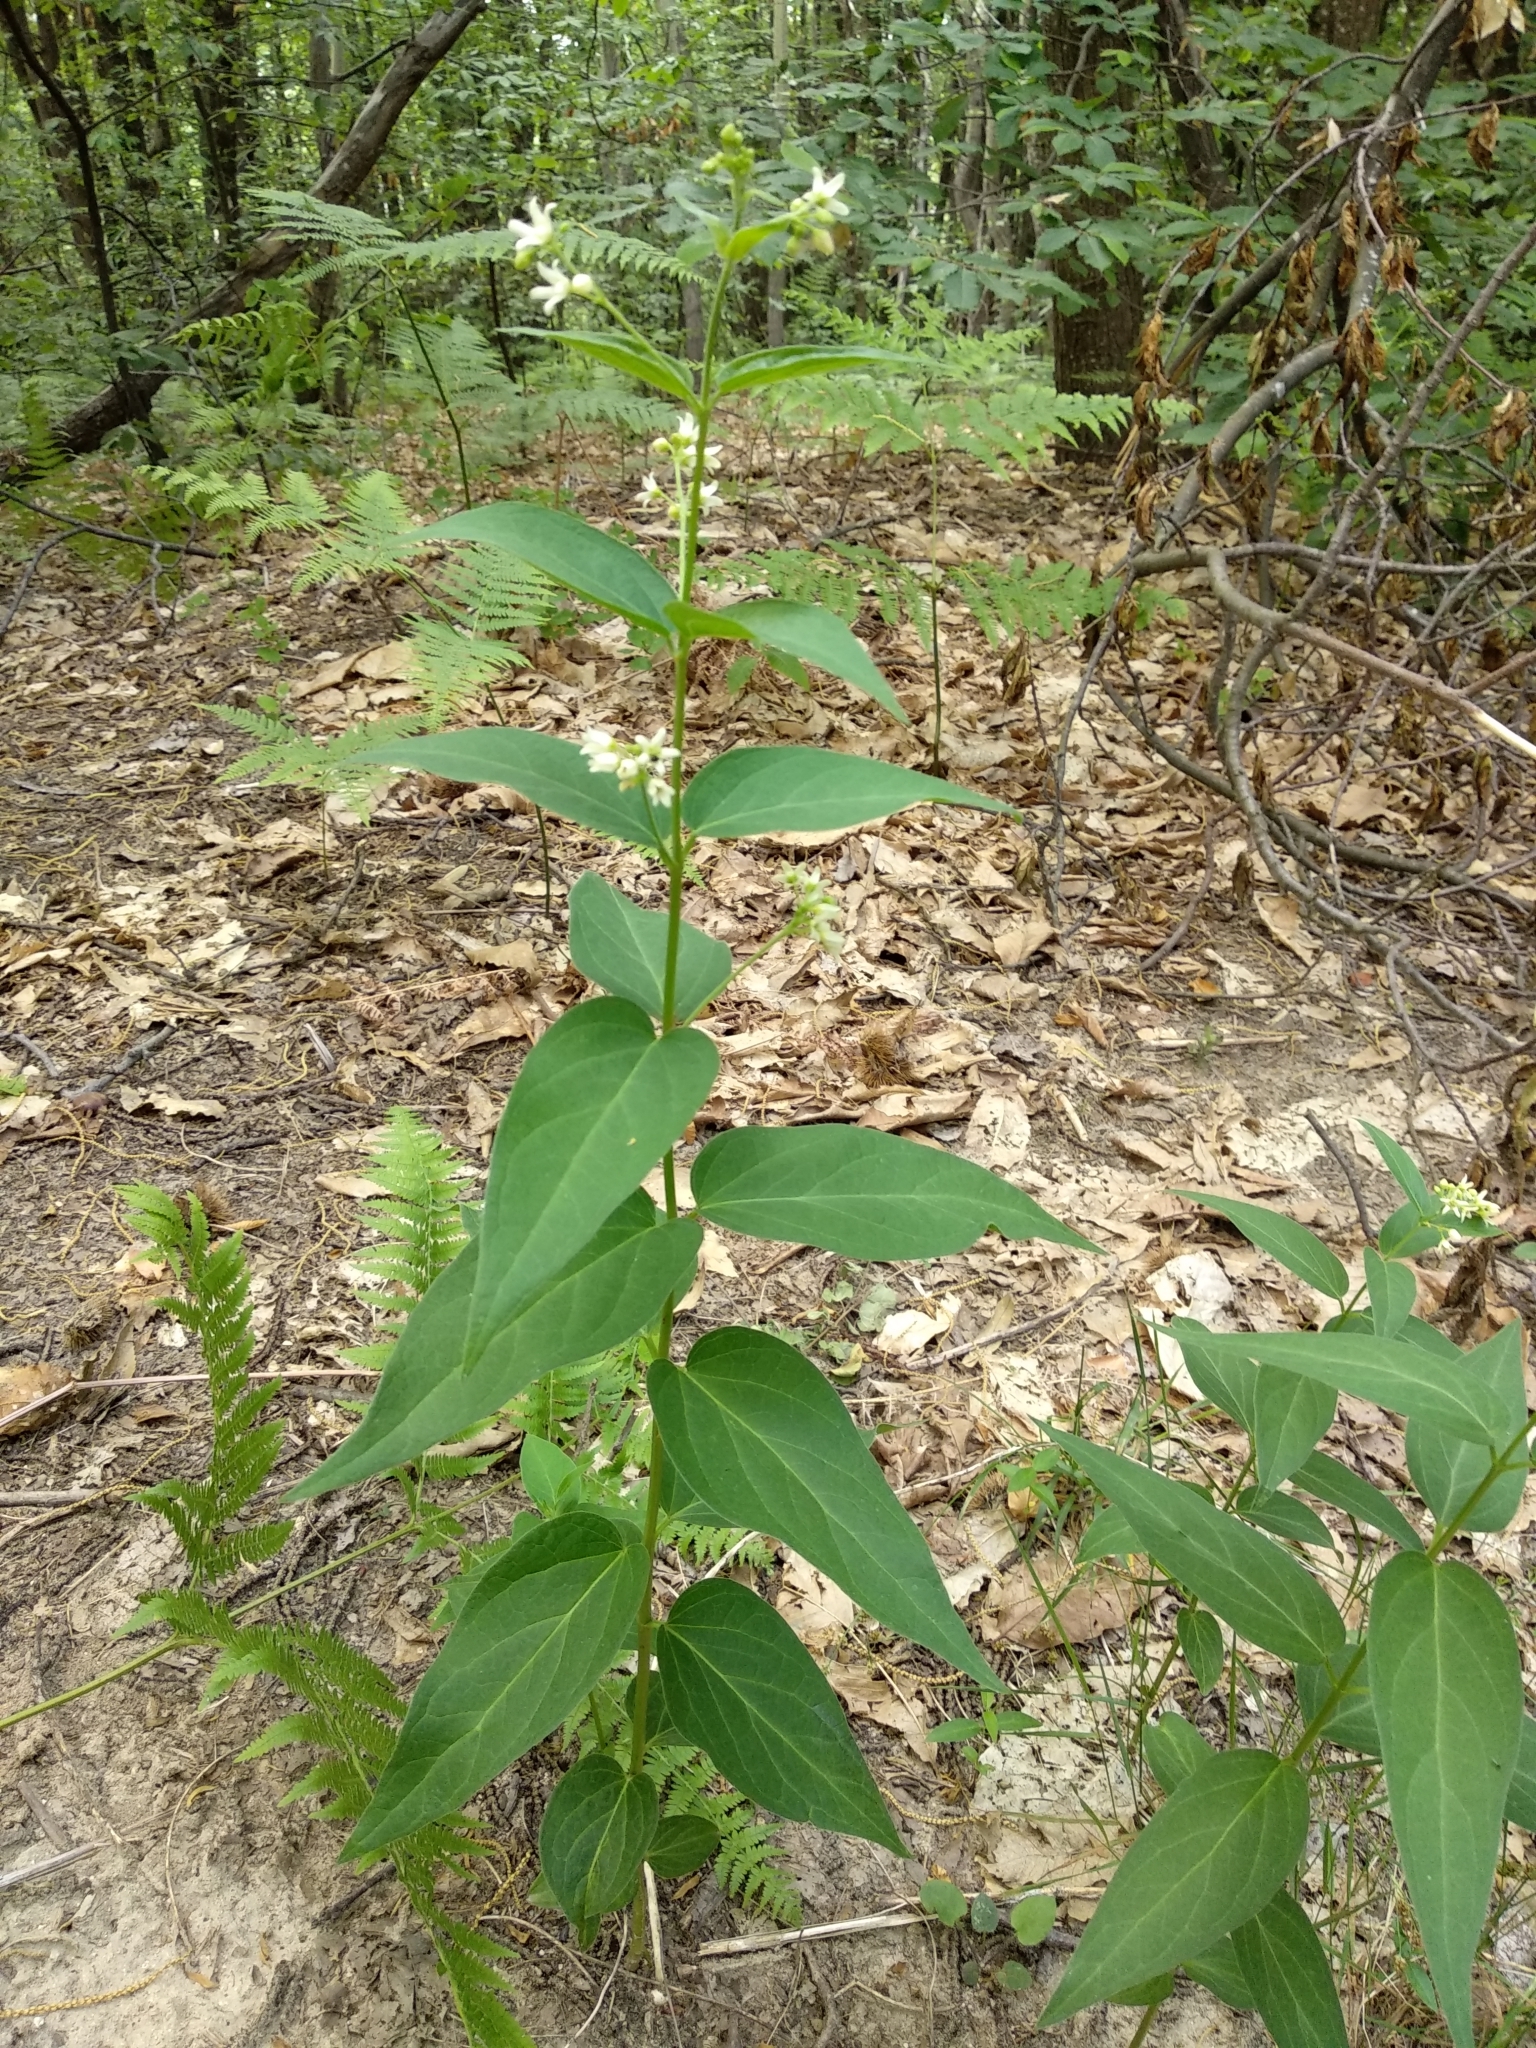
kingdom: Plantae
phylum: Tracheophyta
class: Magnoliopsida
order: Gentianales
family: Apocynaceae
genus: Vincetoxicum
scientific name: Vincetoxicum hirundinaria
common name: White swallowwort
